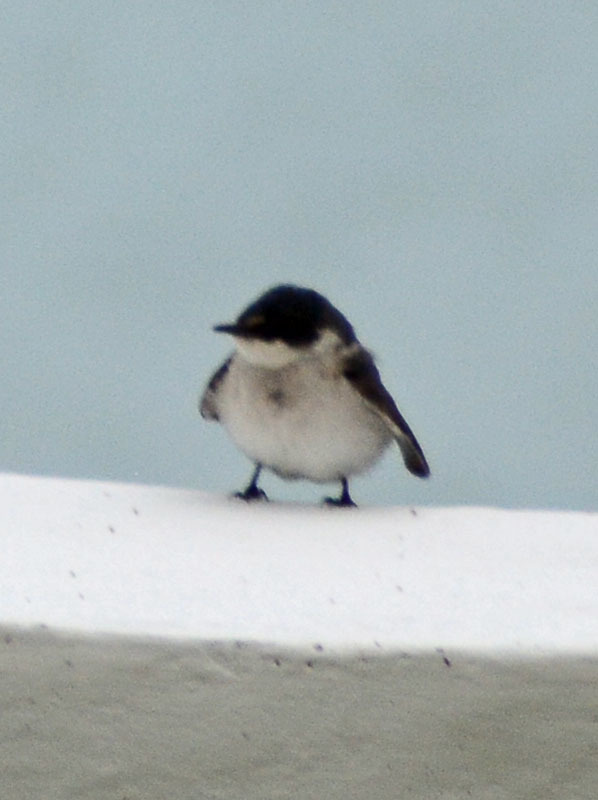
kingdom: Animalia
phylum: Chordata
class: Aves
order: Passeriformes
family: Hirundinidae
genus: Tachycineta
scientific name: Tachycineta albilinea
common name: Mangrove swallow
